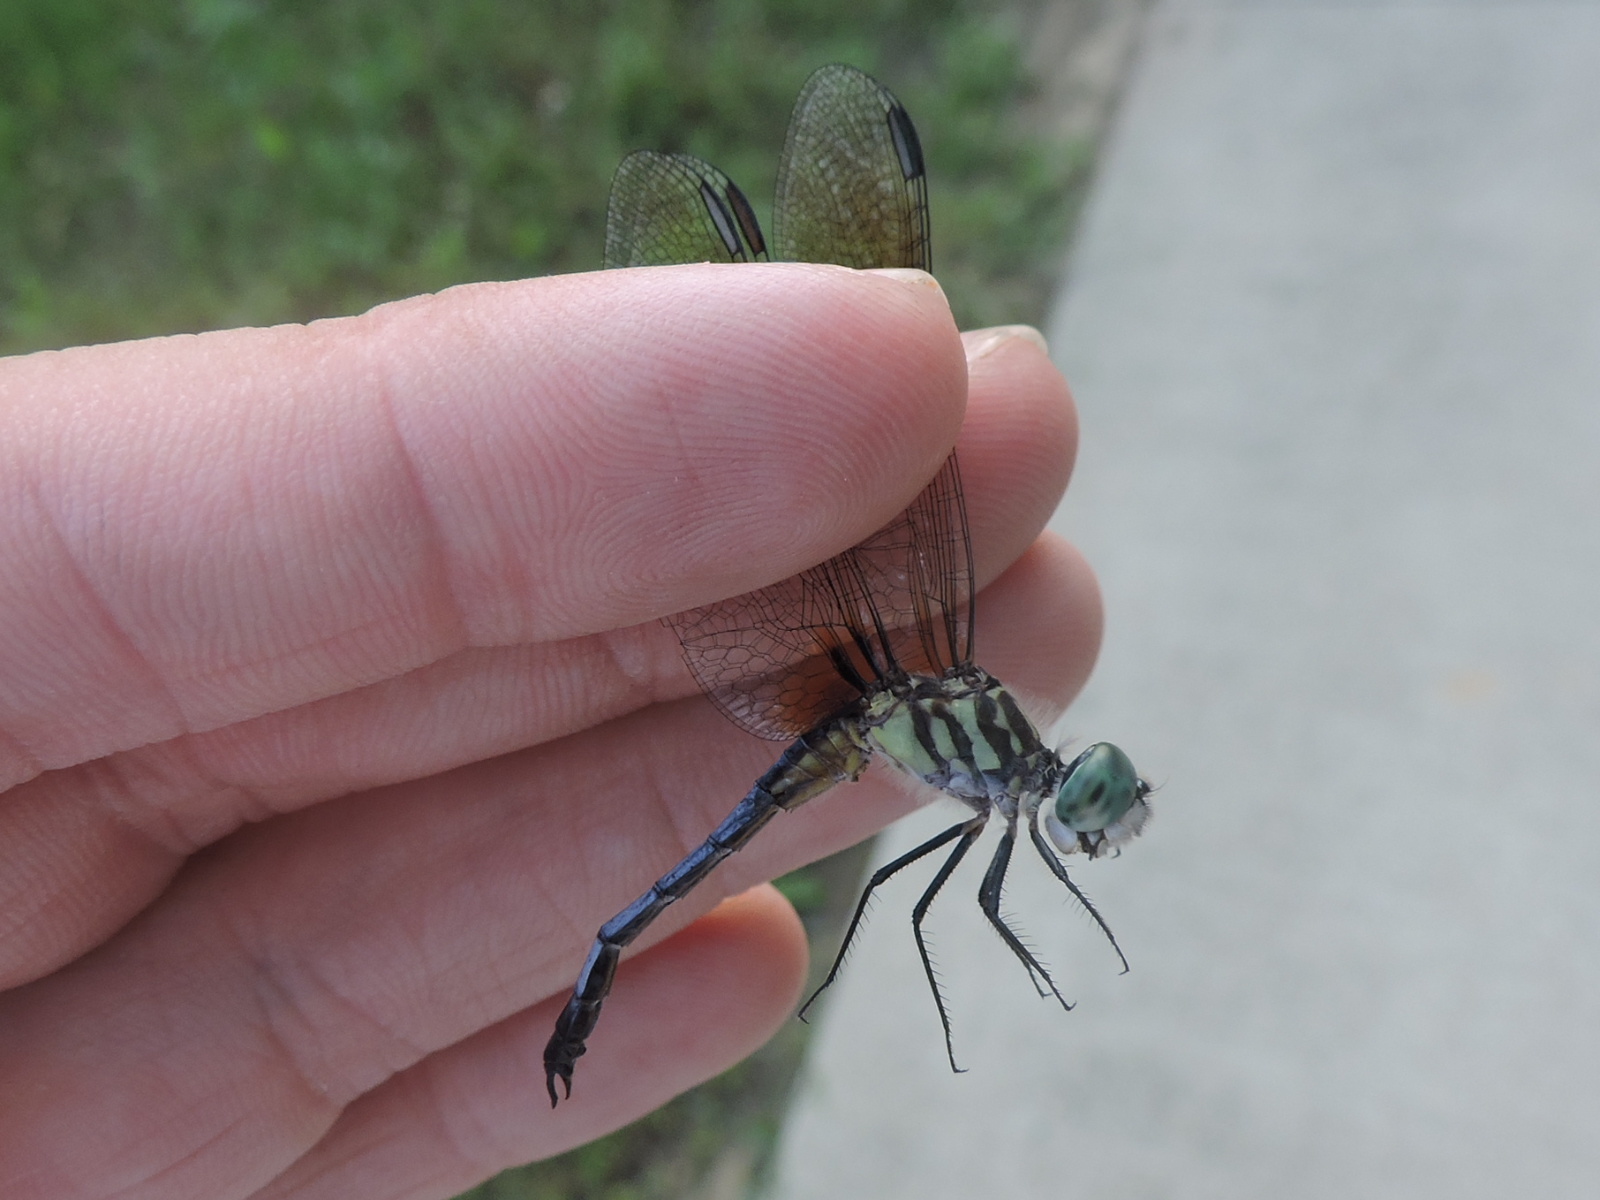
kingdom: Animalia
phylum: Arthropoda
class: Insecta
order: Odonata
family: Libellulidae
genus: Pachydiplax
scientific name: Pachydiplax longipennis
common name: Blue dasher
